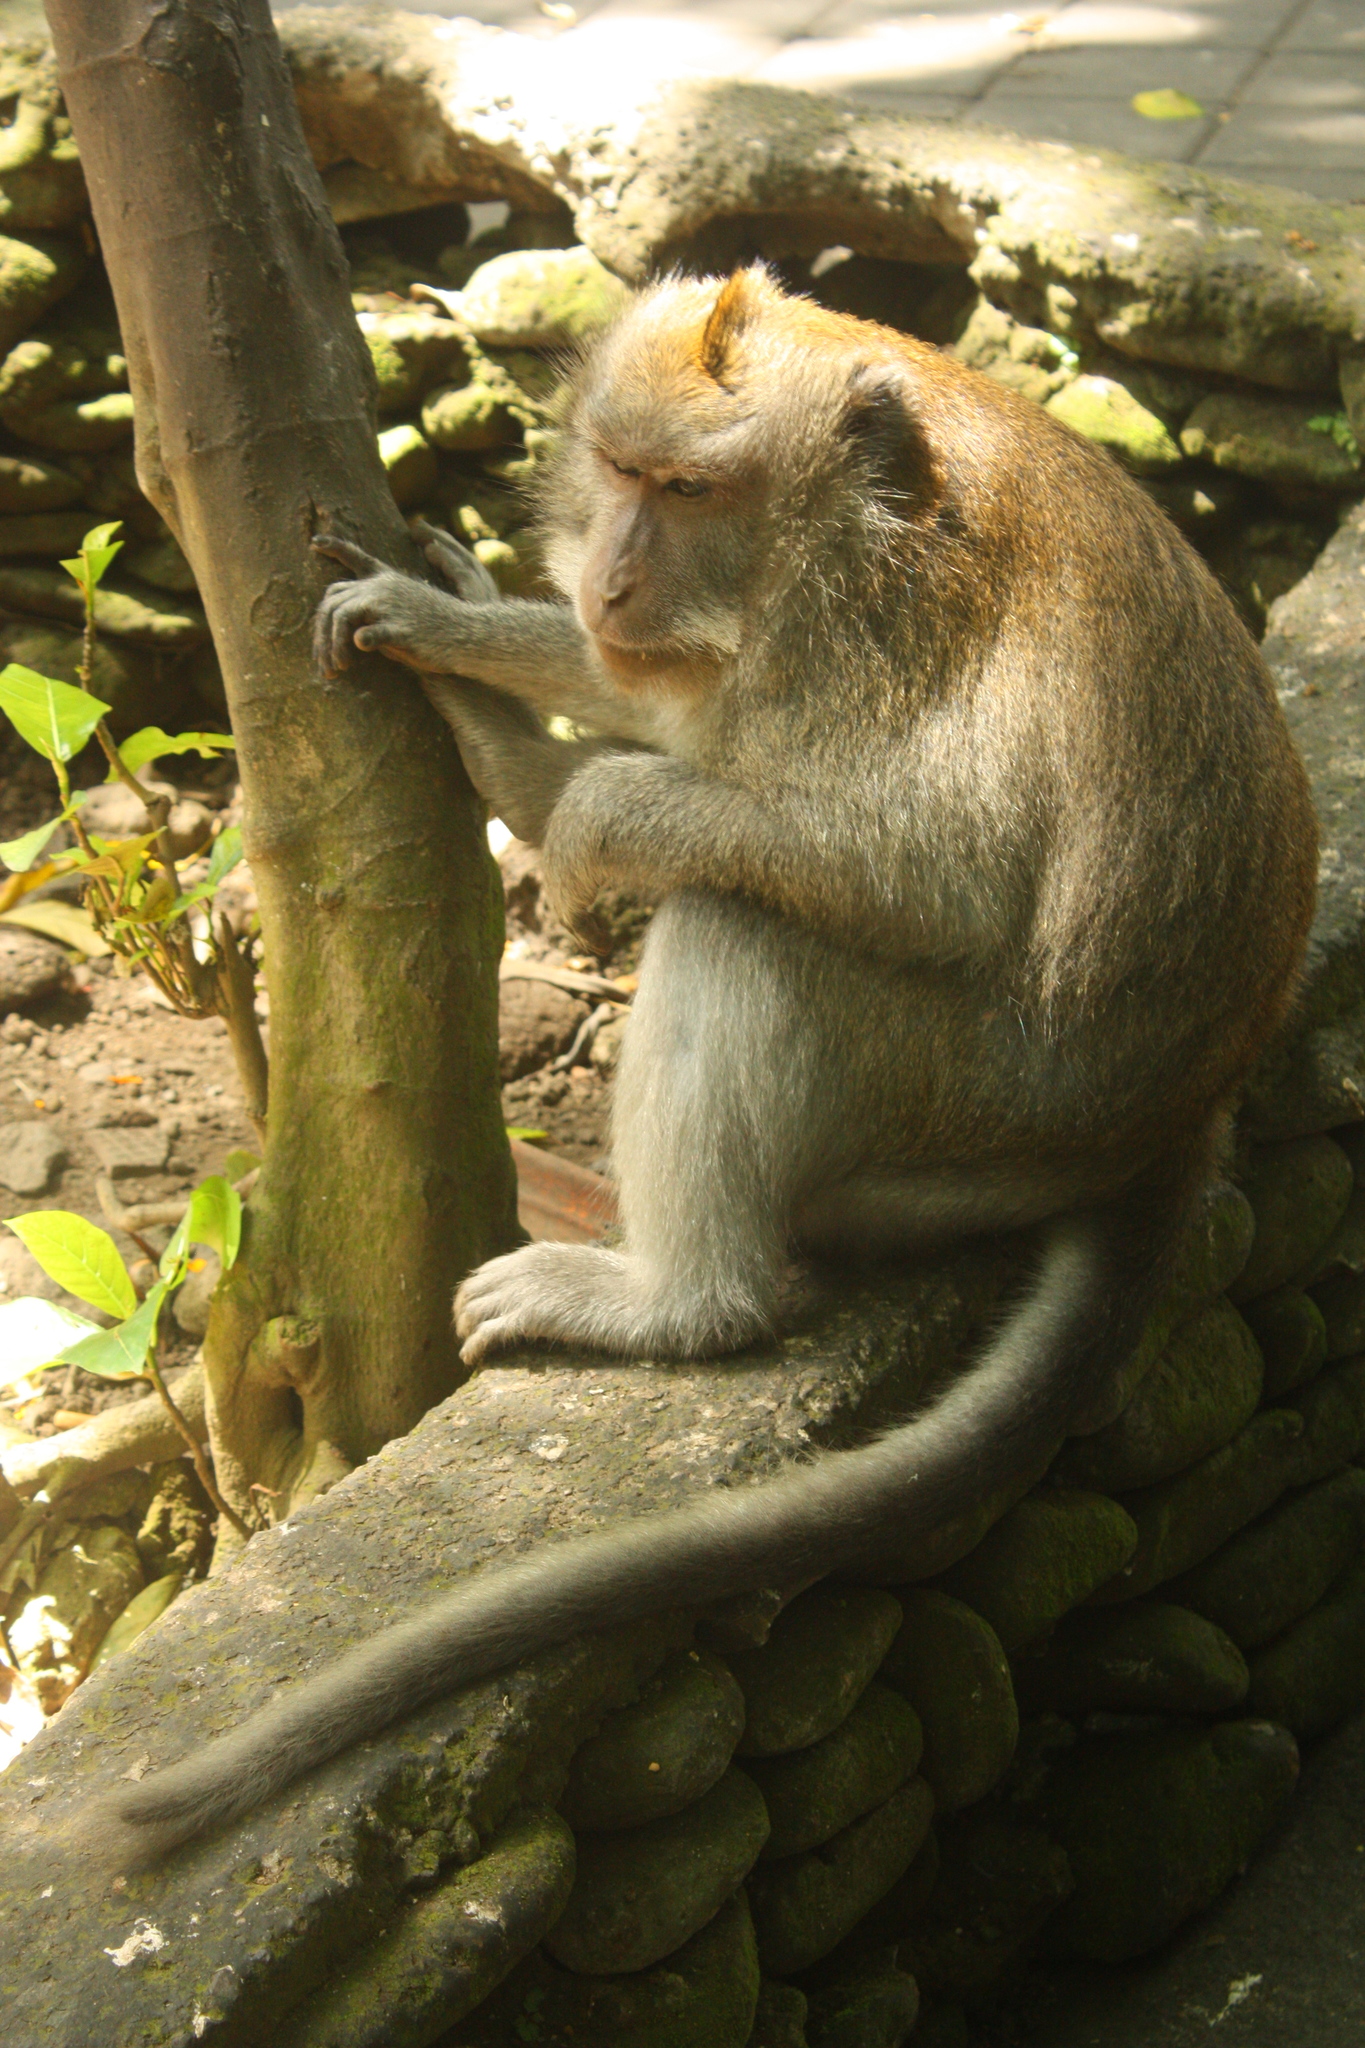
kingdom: Animalia
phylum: Chordata
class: Mammalia
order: Primates
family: Cercopithecidae
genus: Macaca
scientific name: Macaca fascicularis
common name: Crab-eating macaque
